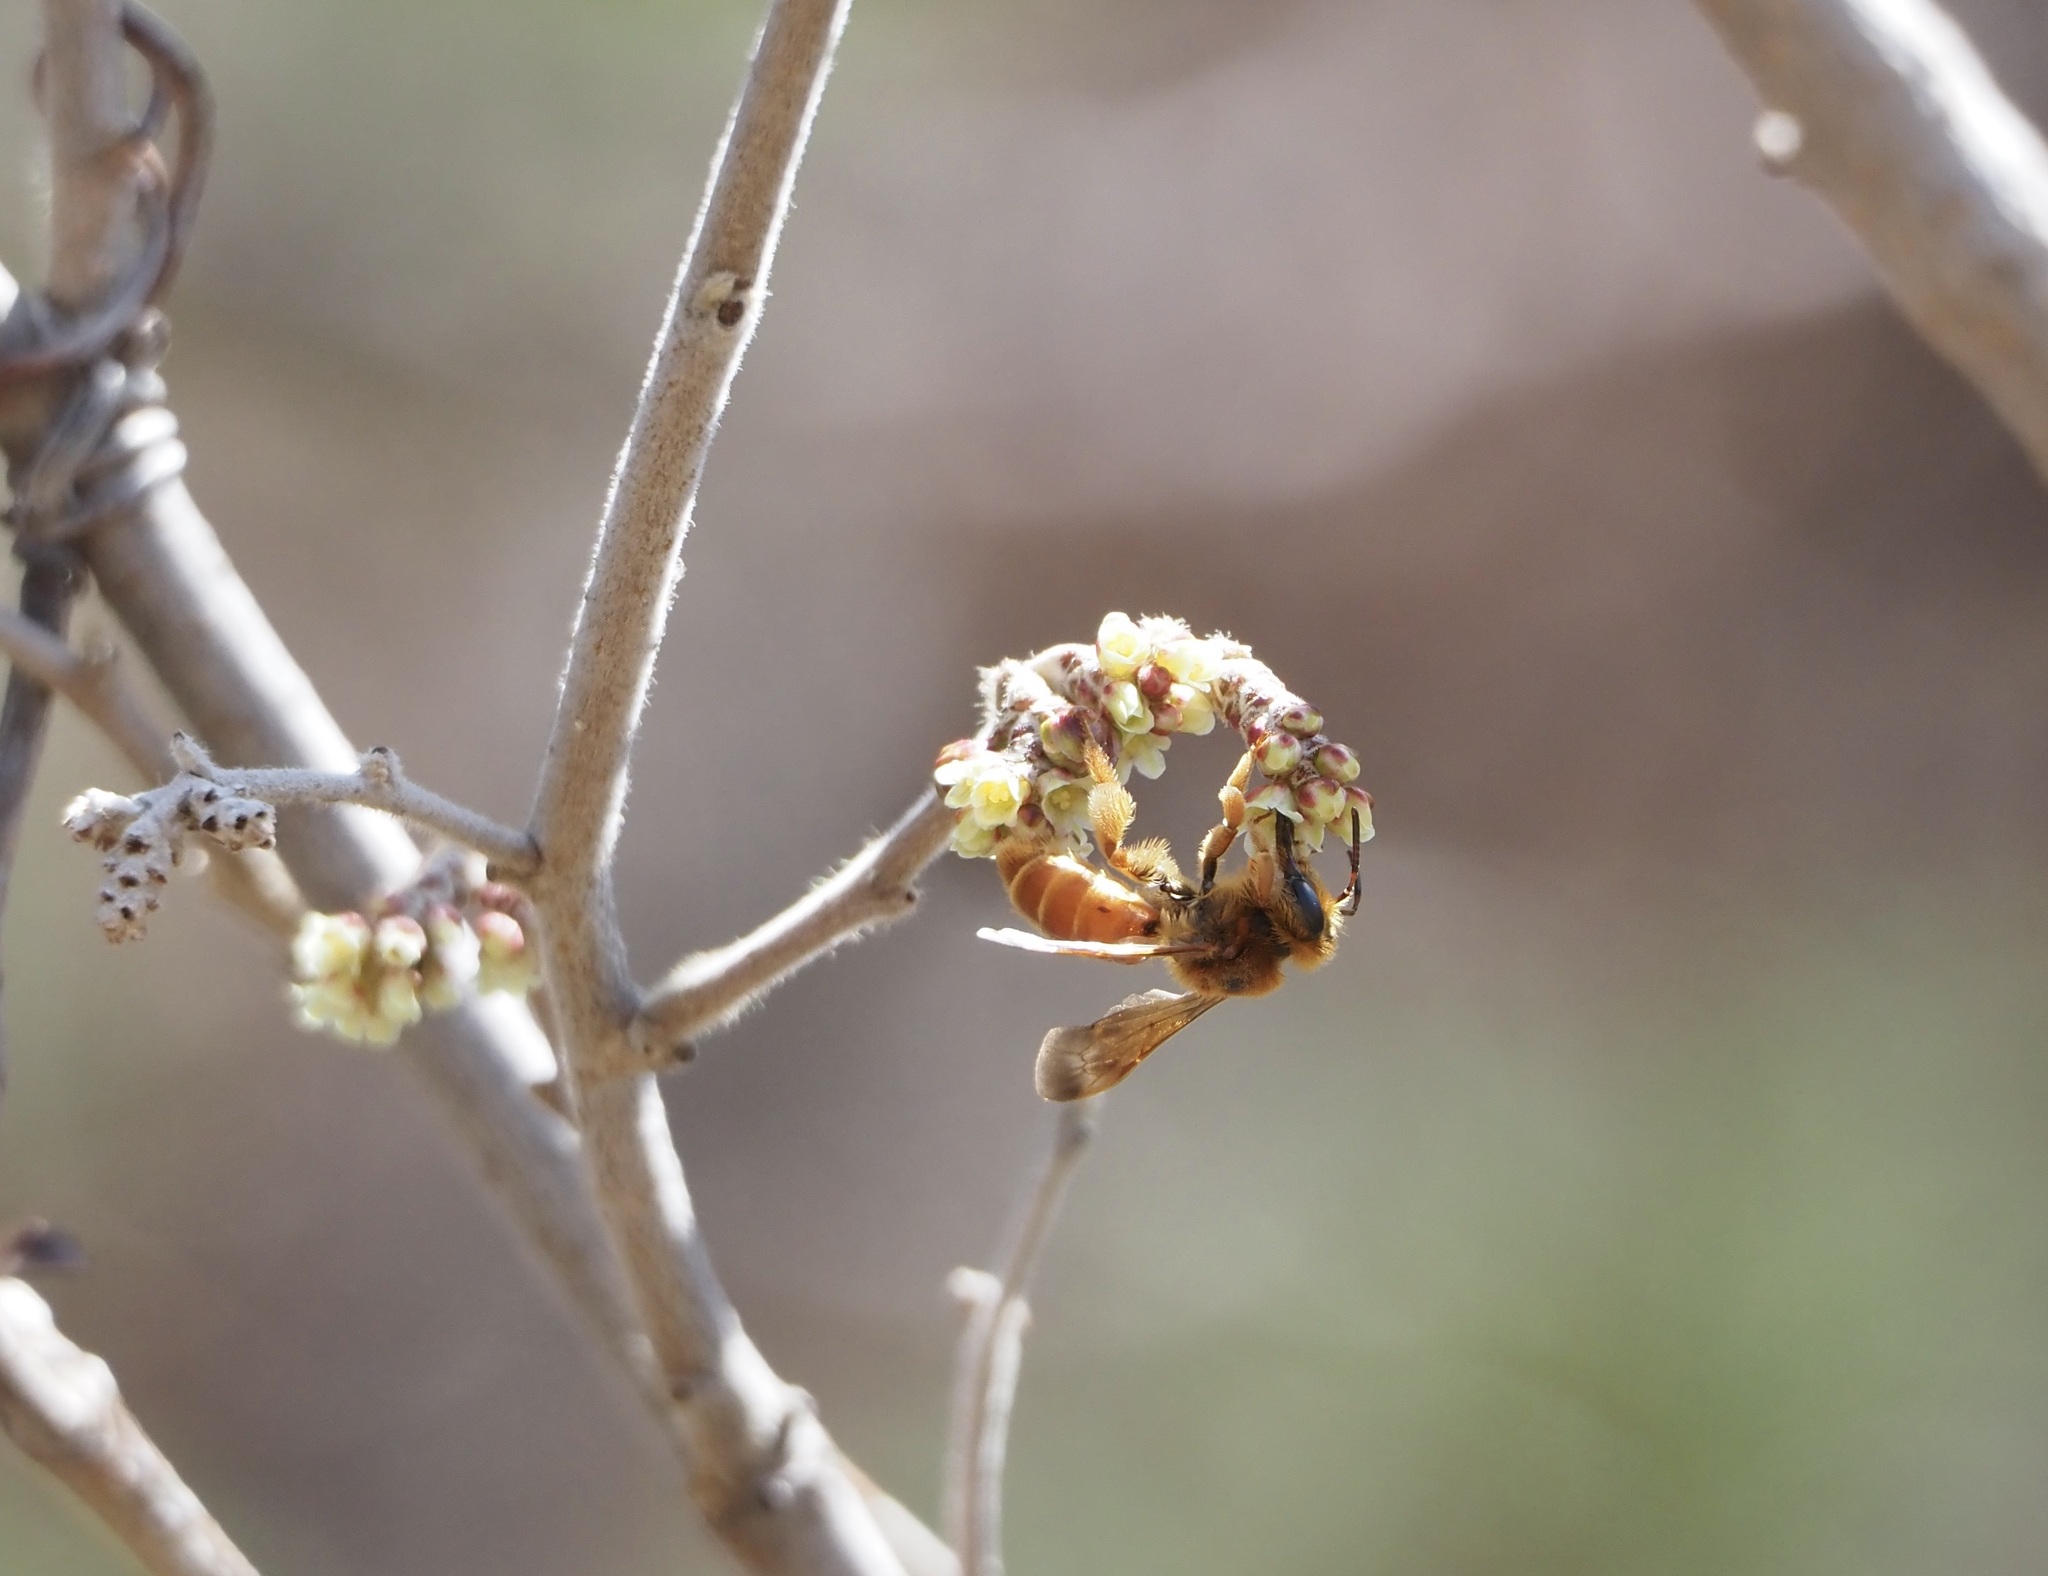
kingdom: Animalia
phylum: Arthropoda
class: Insecta
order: Hymenoptera
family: Andrenidae
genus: Andrena
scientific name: Andrena jessicae
